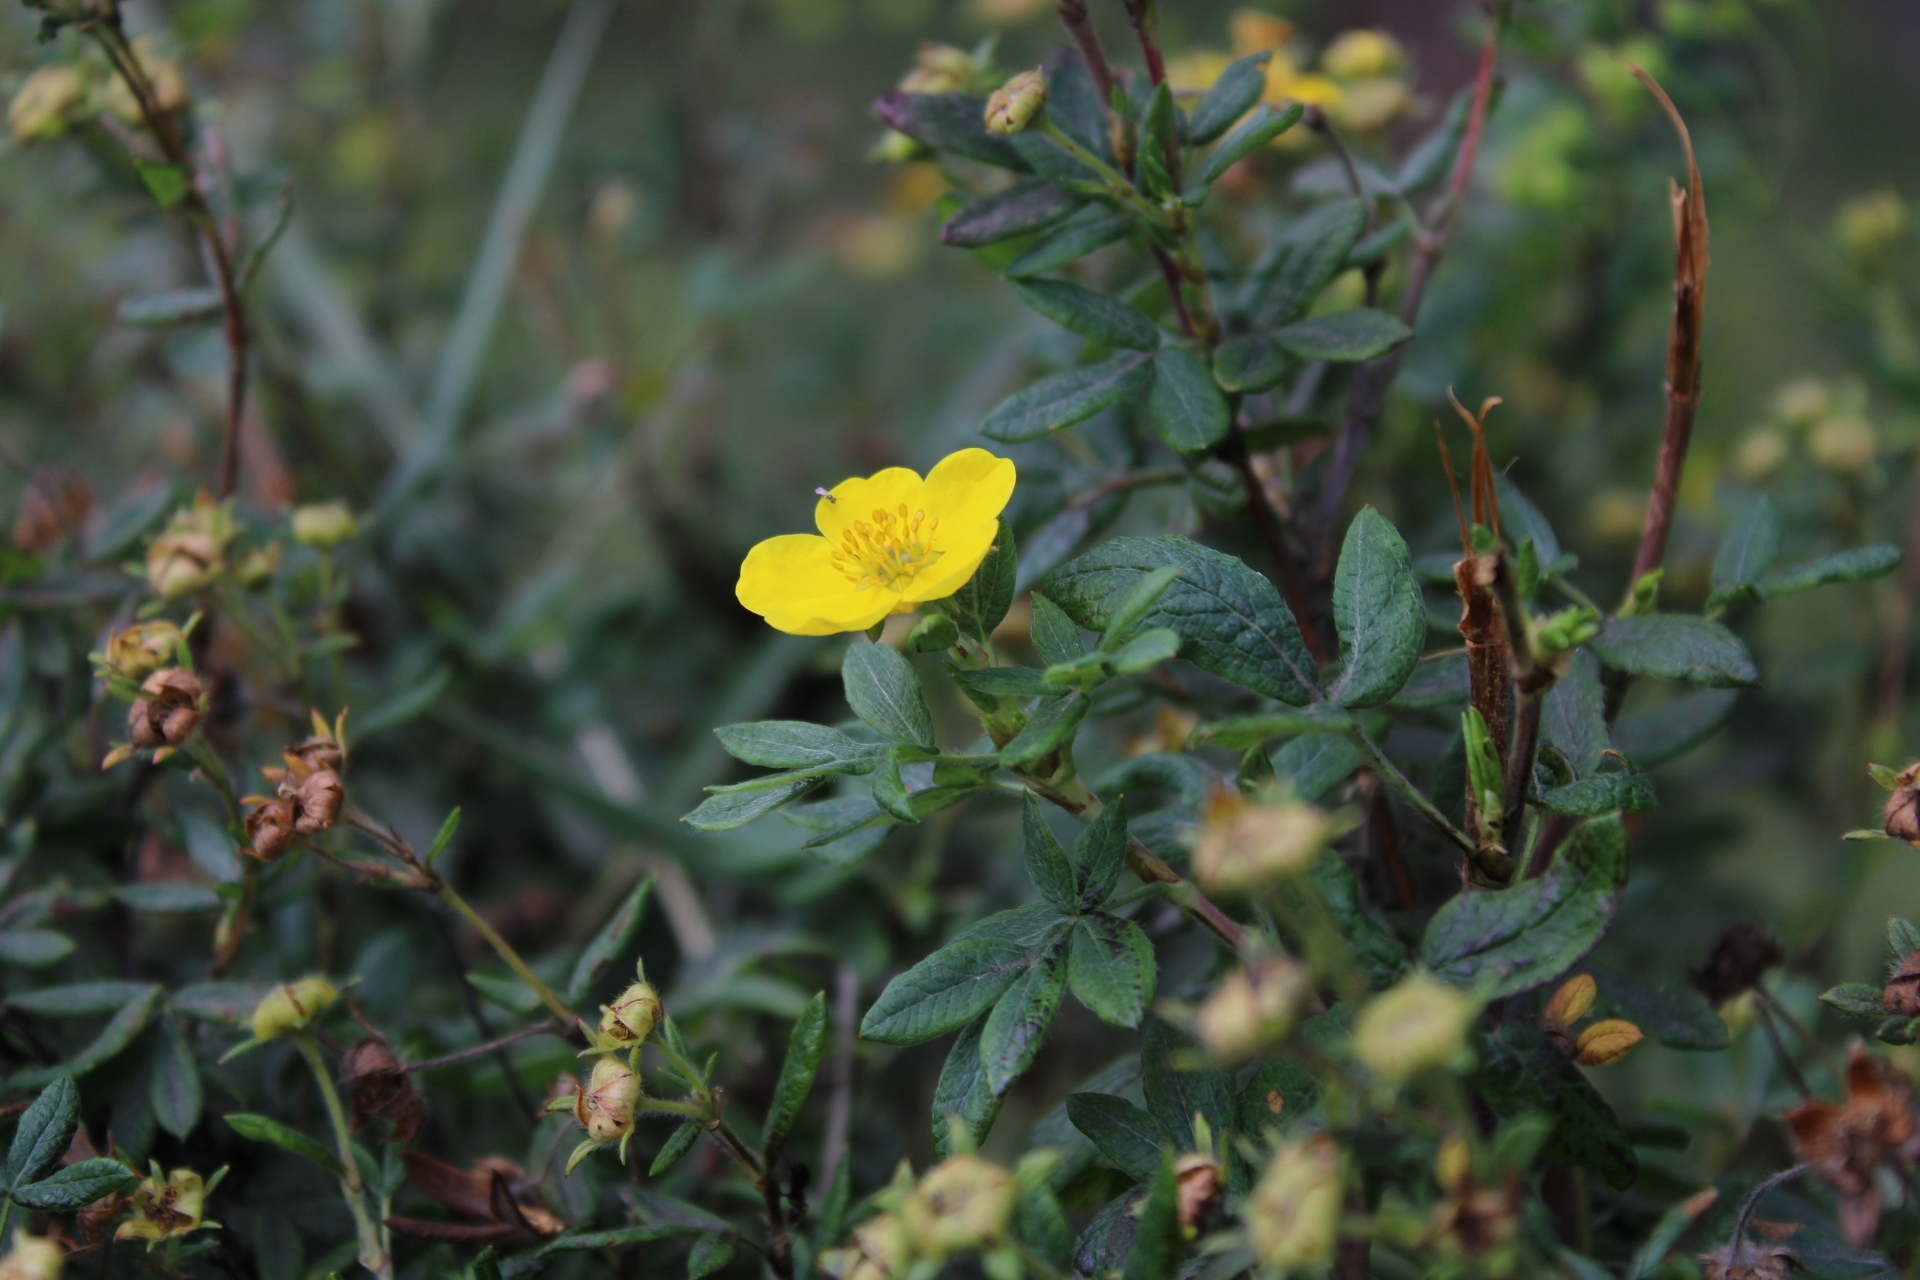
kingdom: Plantae
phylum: Tracheophyta
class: Magnoliopsida
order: Rosales
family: Rosaceae
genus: Dasiphora
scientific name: Dasiphora fruticosa
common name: Shrubby cinquefoil
